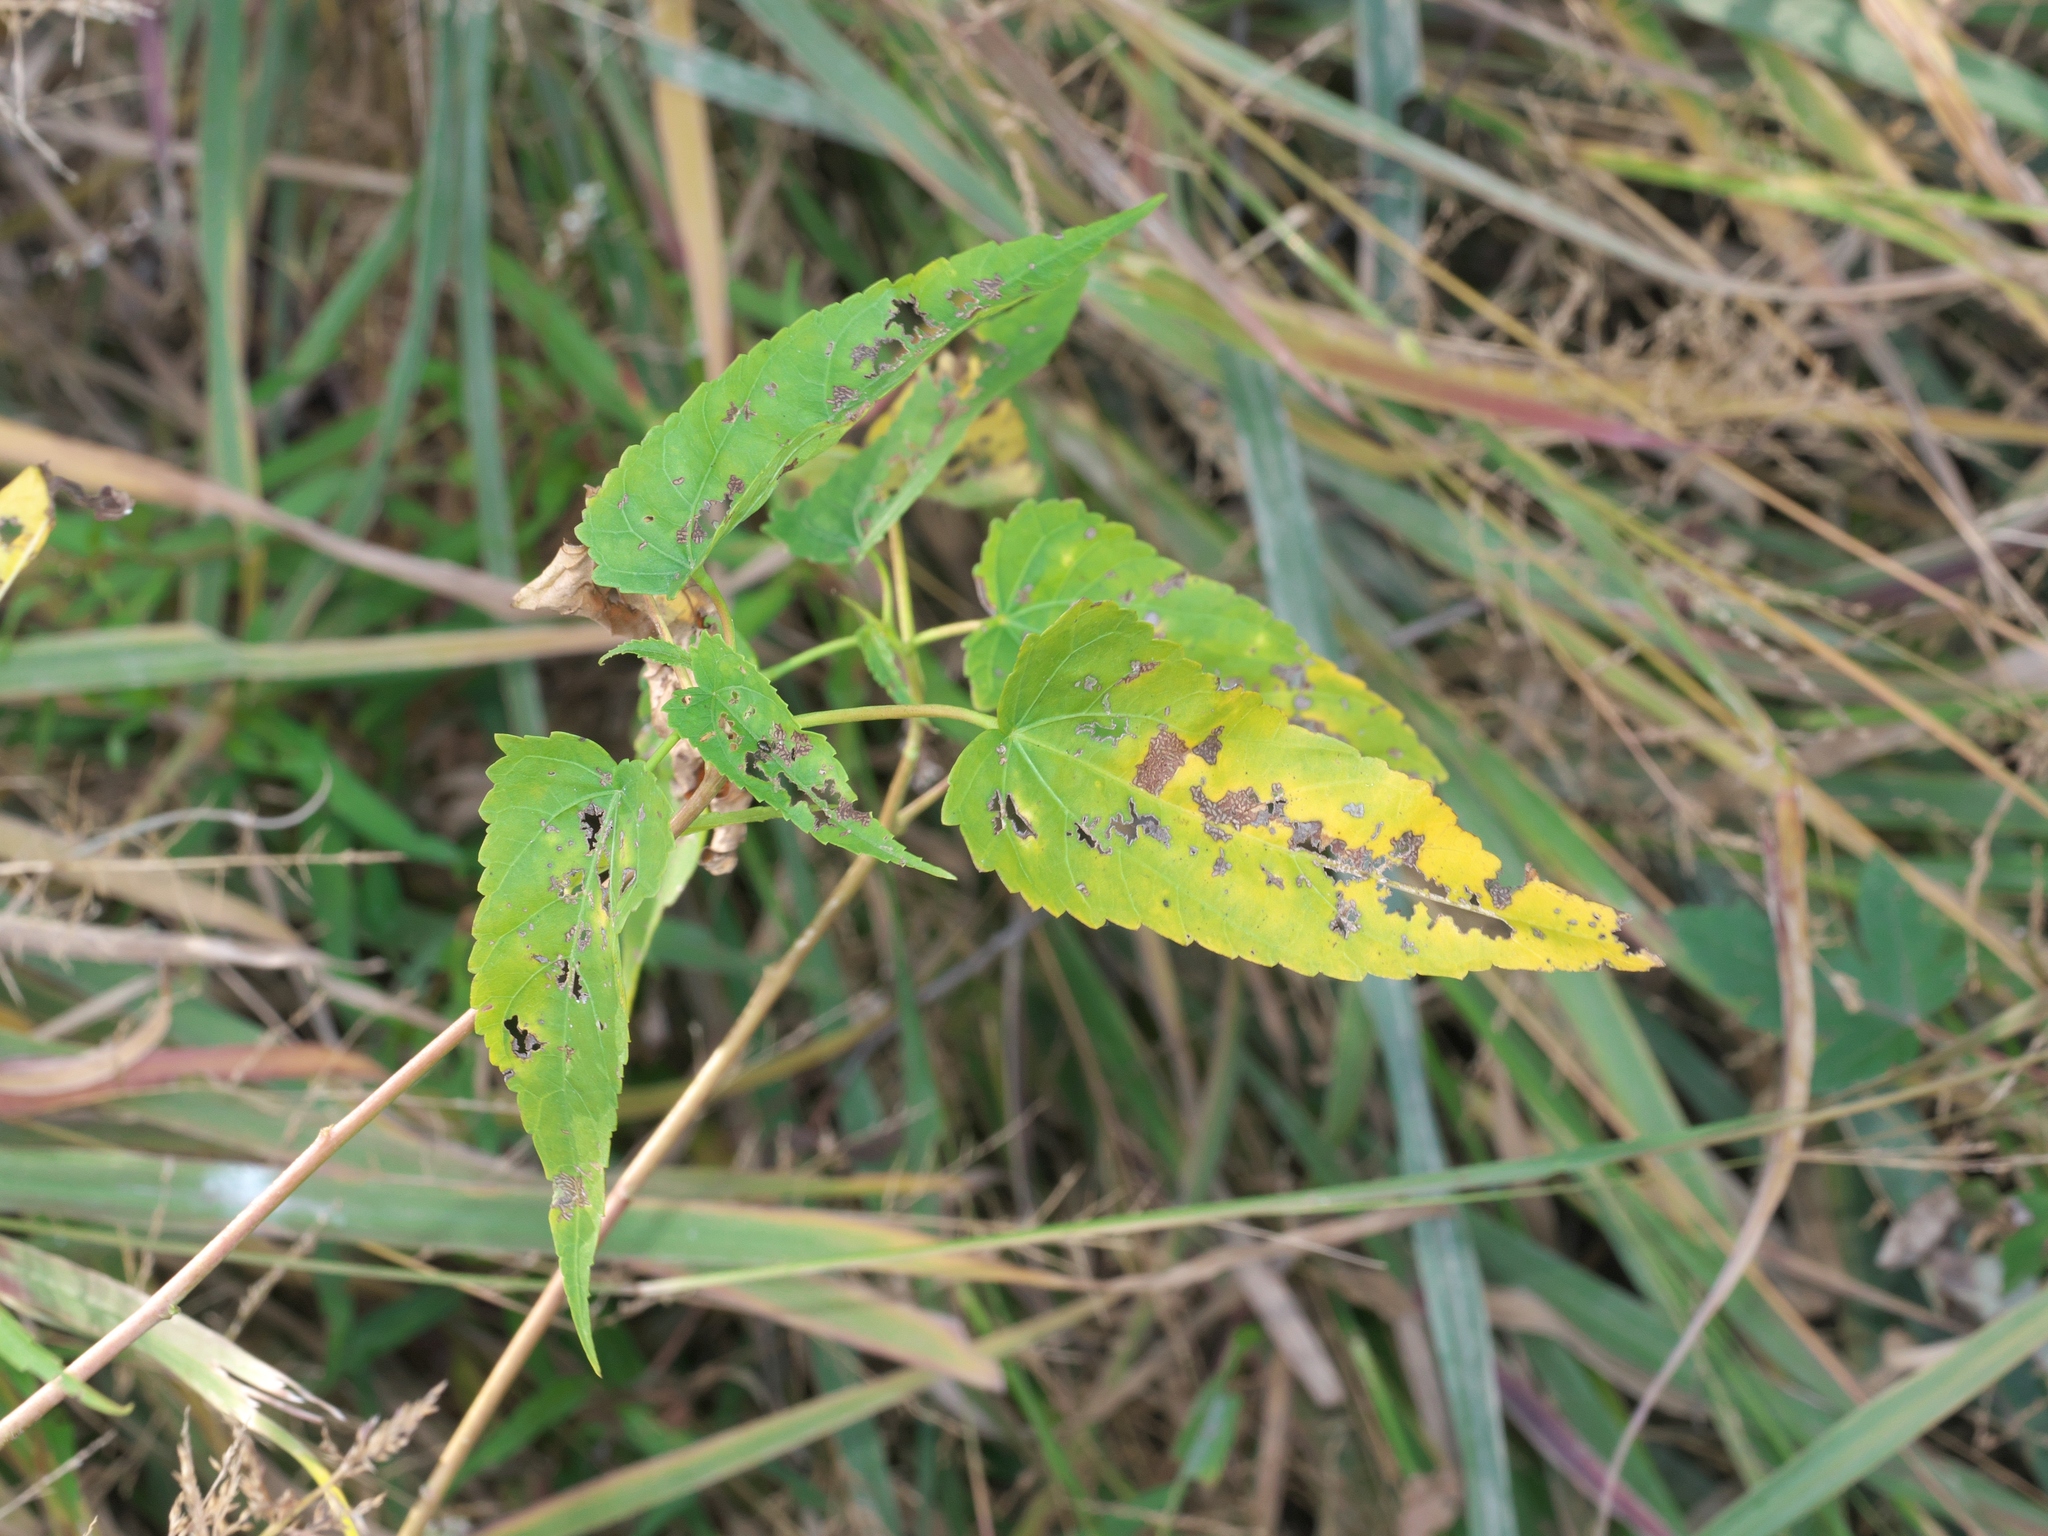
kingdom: Plantae
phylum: Tracheophyta
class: Magnoliopsida
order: Malvales
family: Malvaceae
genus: Hibiscus
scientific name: Hibiscus laevis
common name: Scarlet rose-mallow
